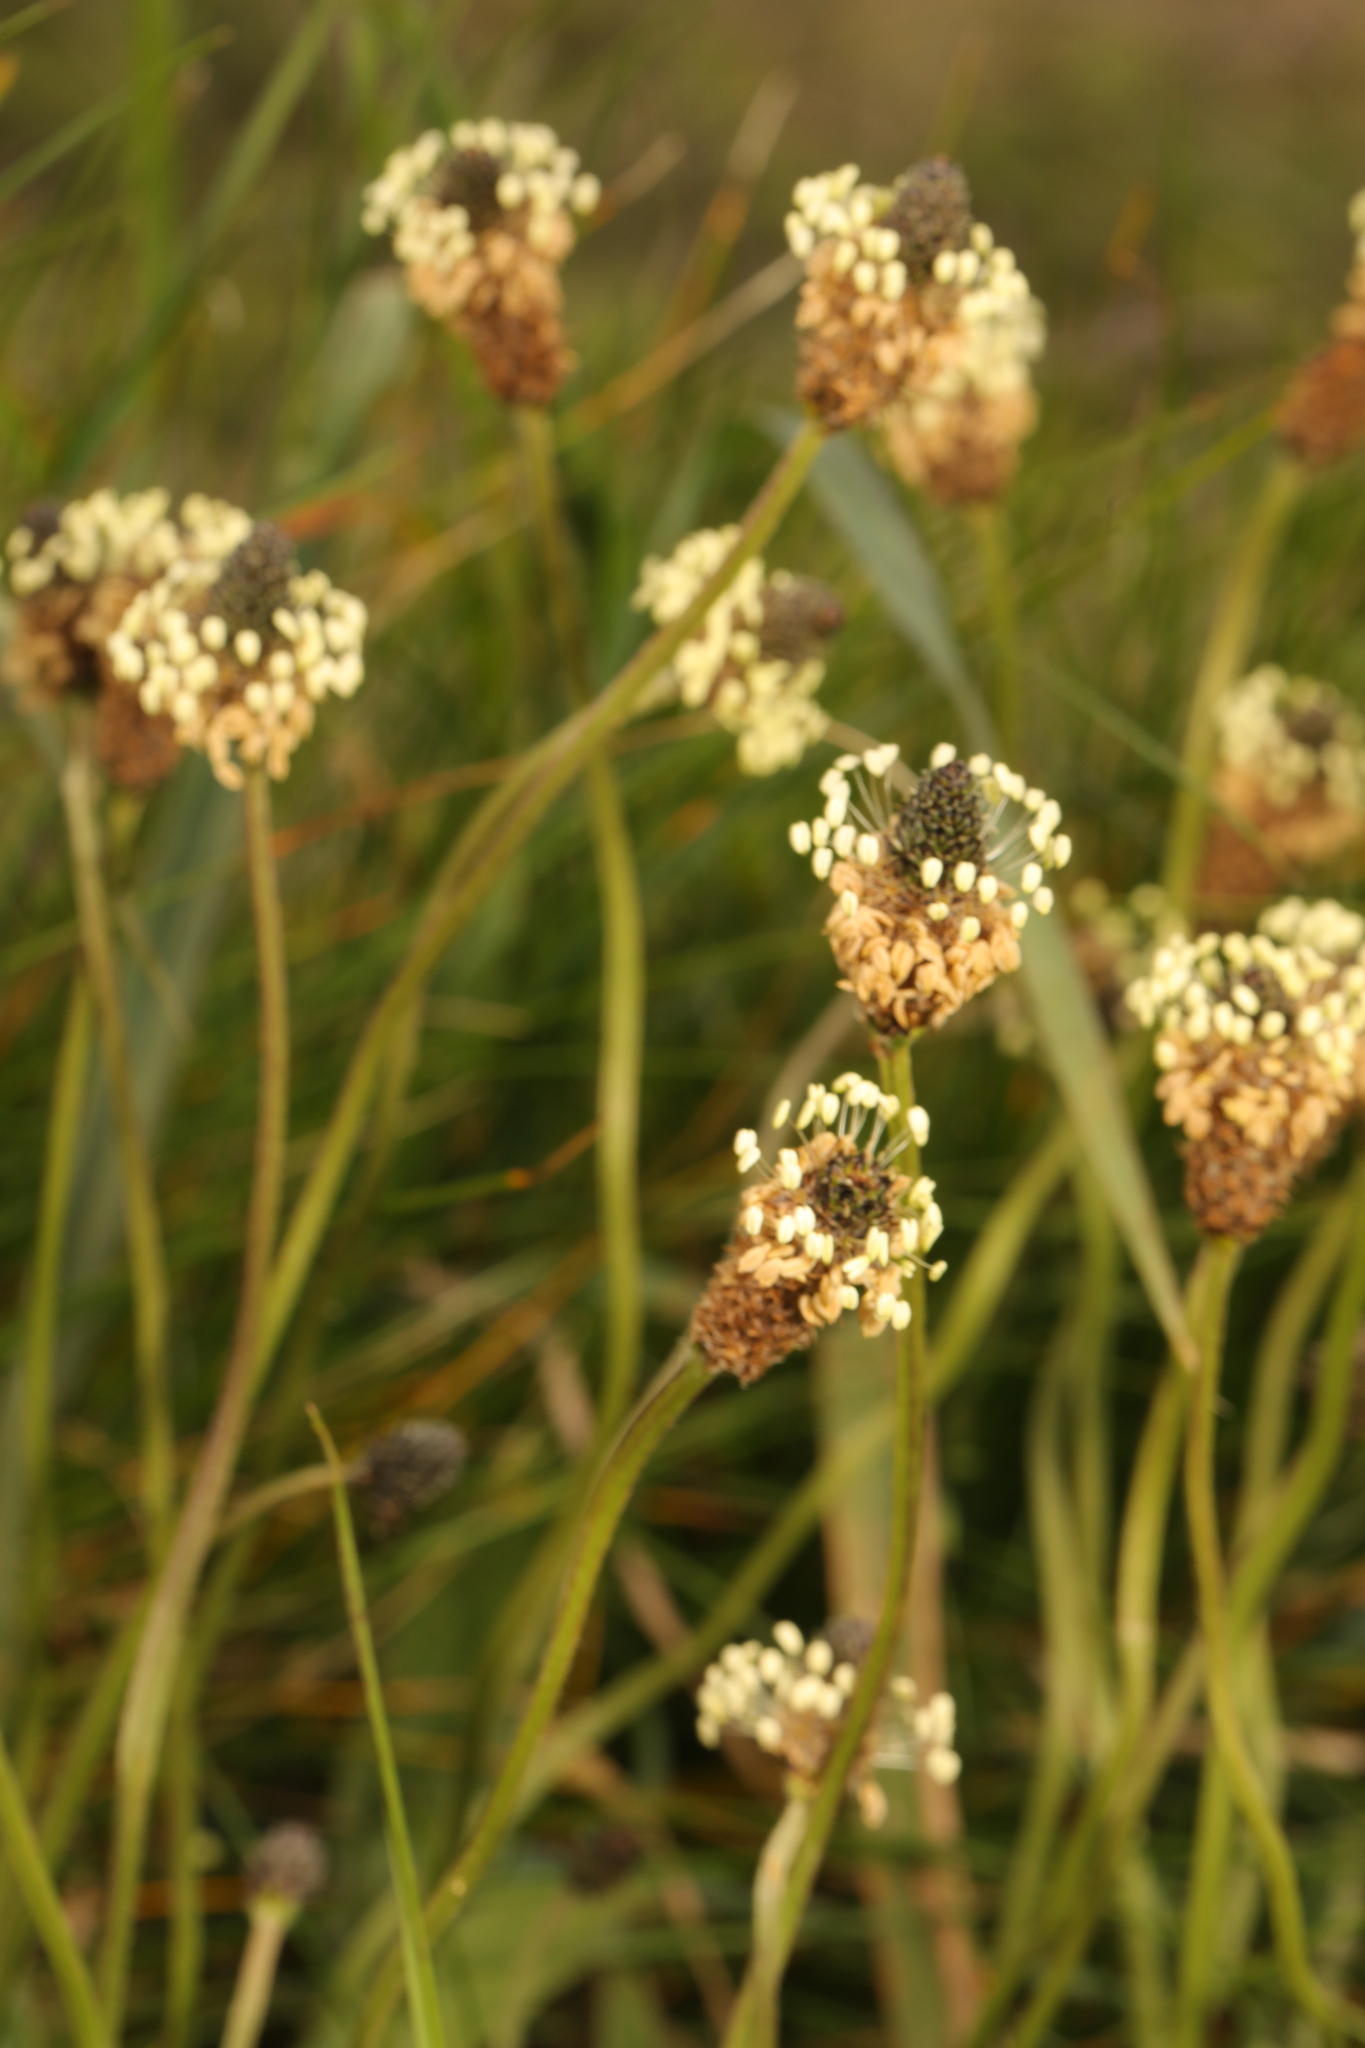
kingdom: Plantae
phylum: Tracheophyta
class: Magnoliopsida
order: Lamiales
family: Plantaginaceae
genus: Plantago
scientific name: Plantago lanceolata
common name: Ribwort plantain
